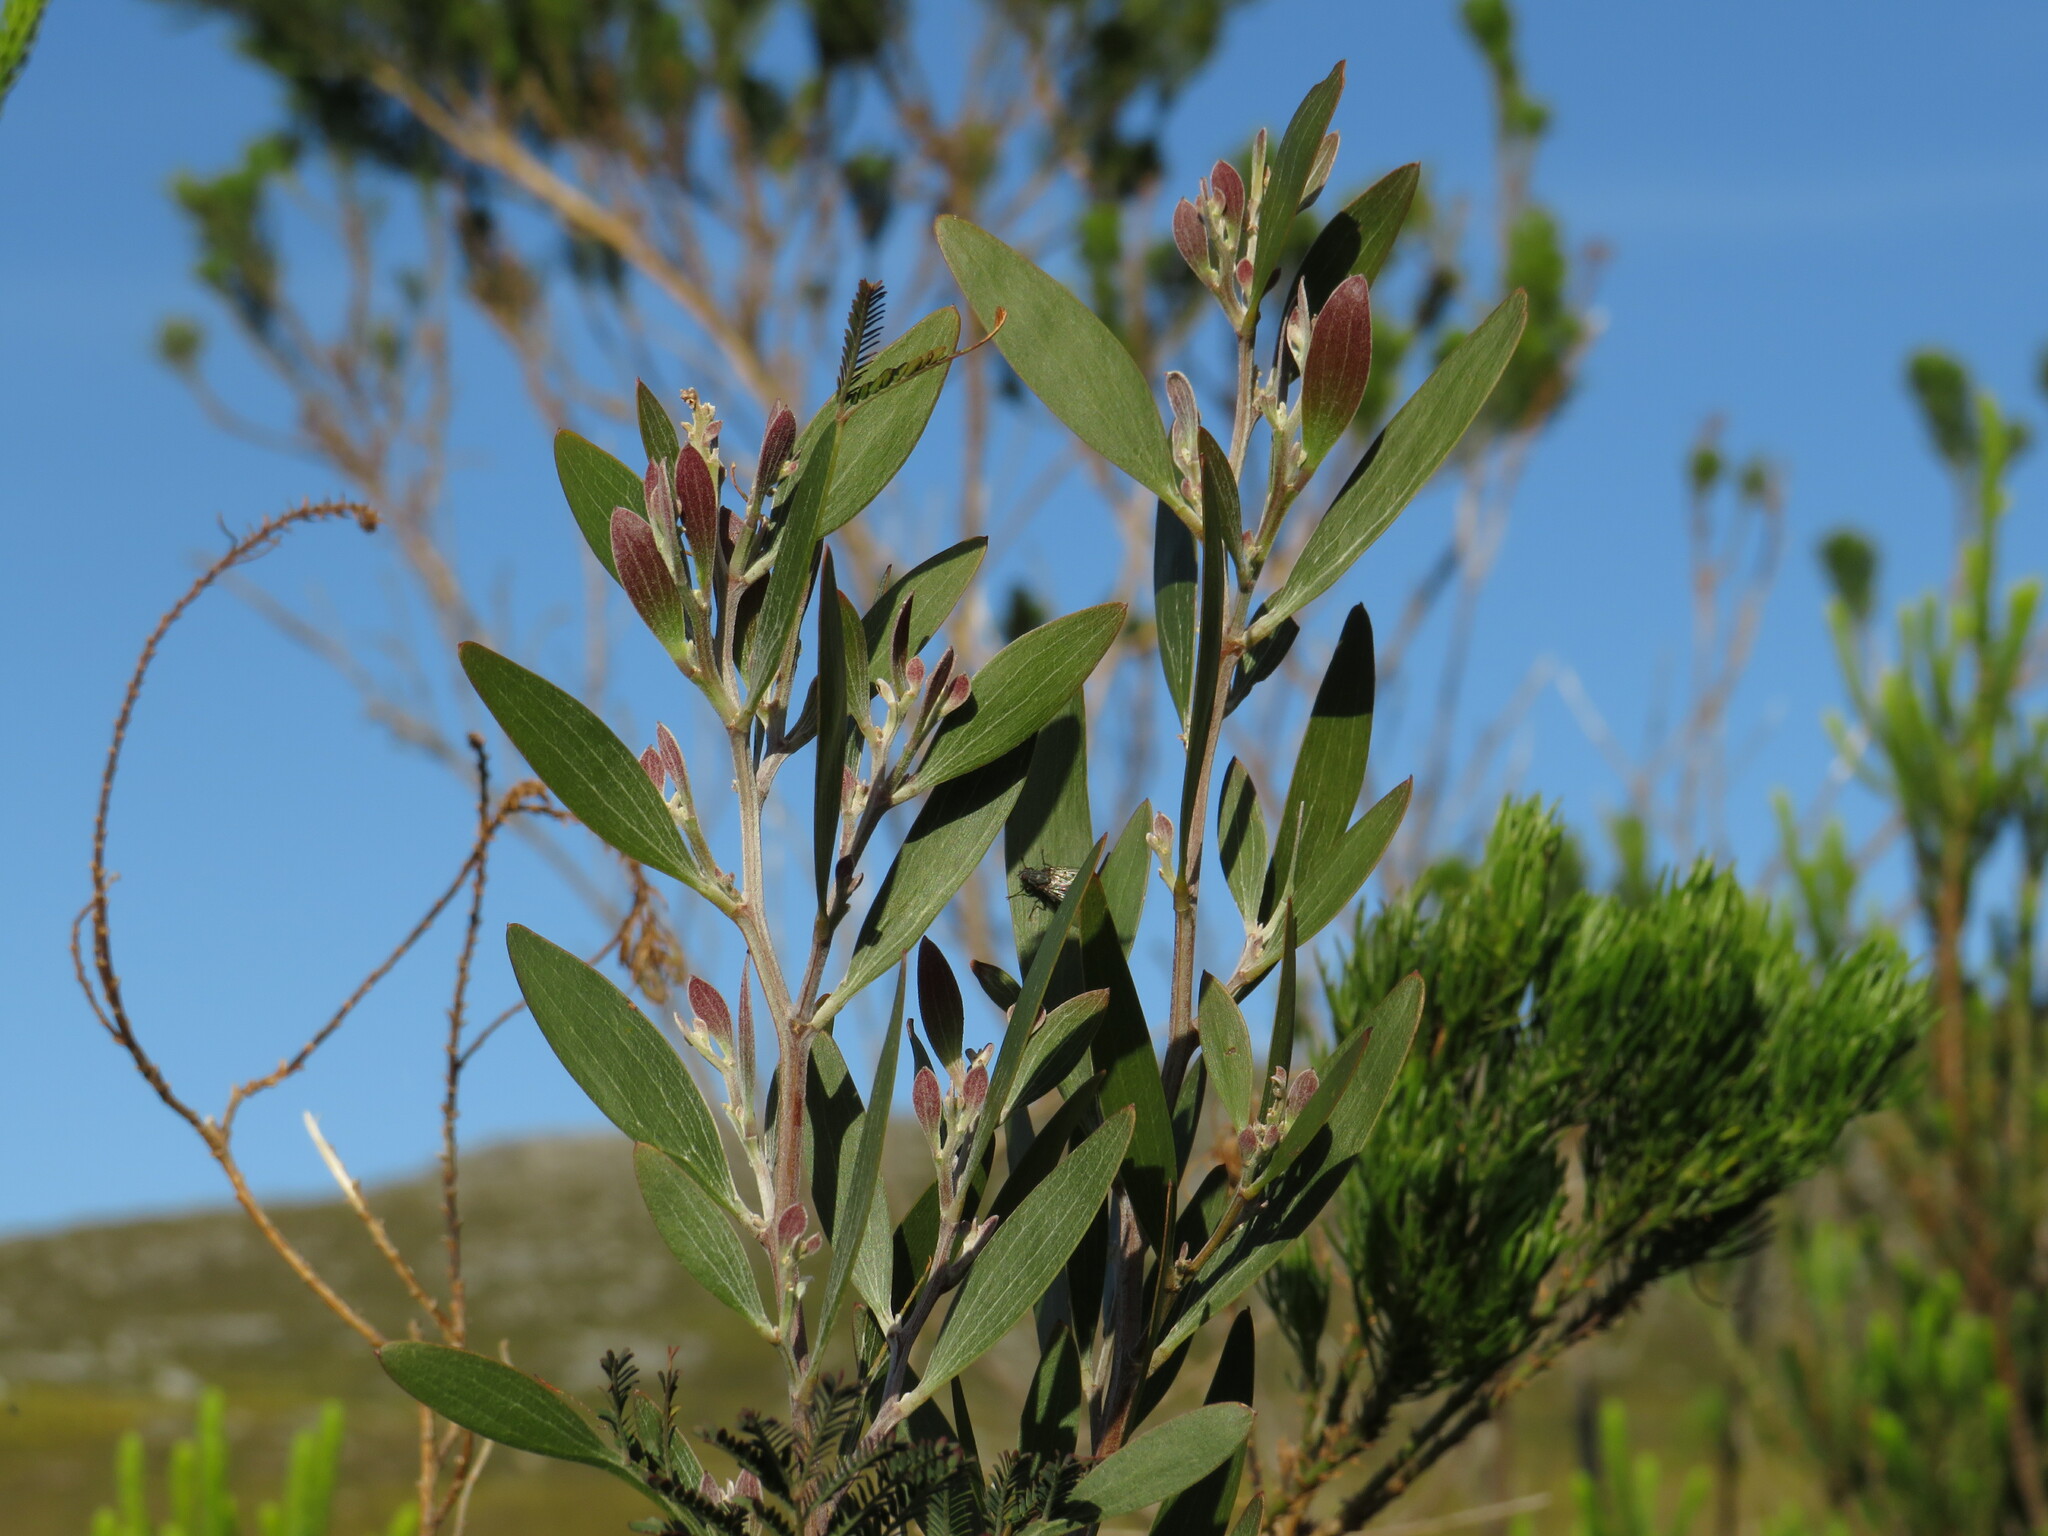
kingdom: Plantae
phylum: Tracheophyta
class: Magnoliopsida
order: Fabales
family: Fabaceae
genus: Acacia
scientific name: Acacia melanoxylon
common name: Blackwood
